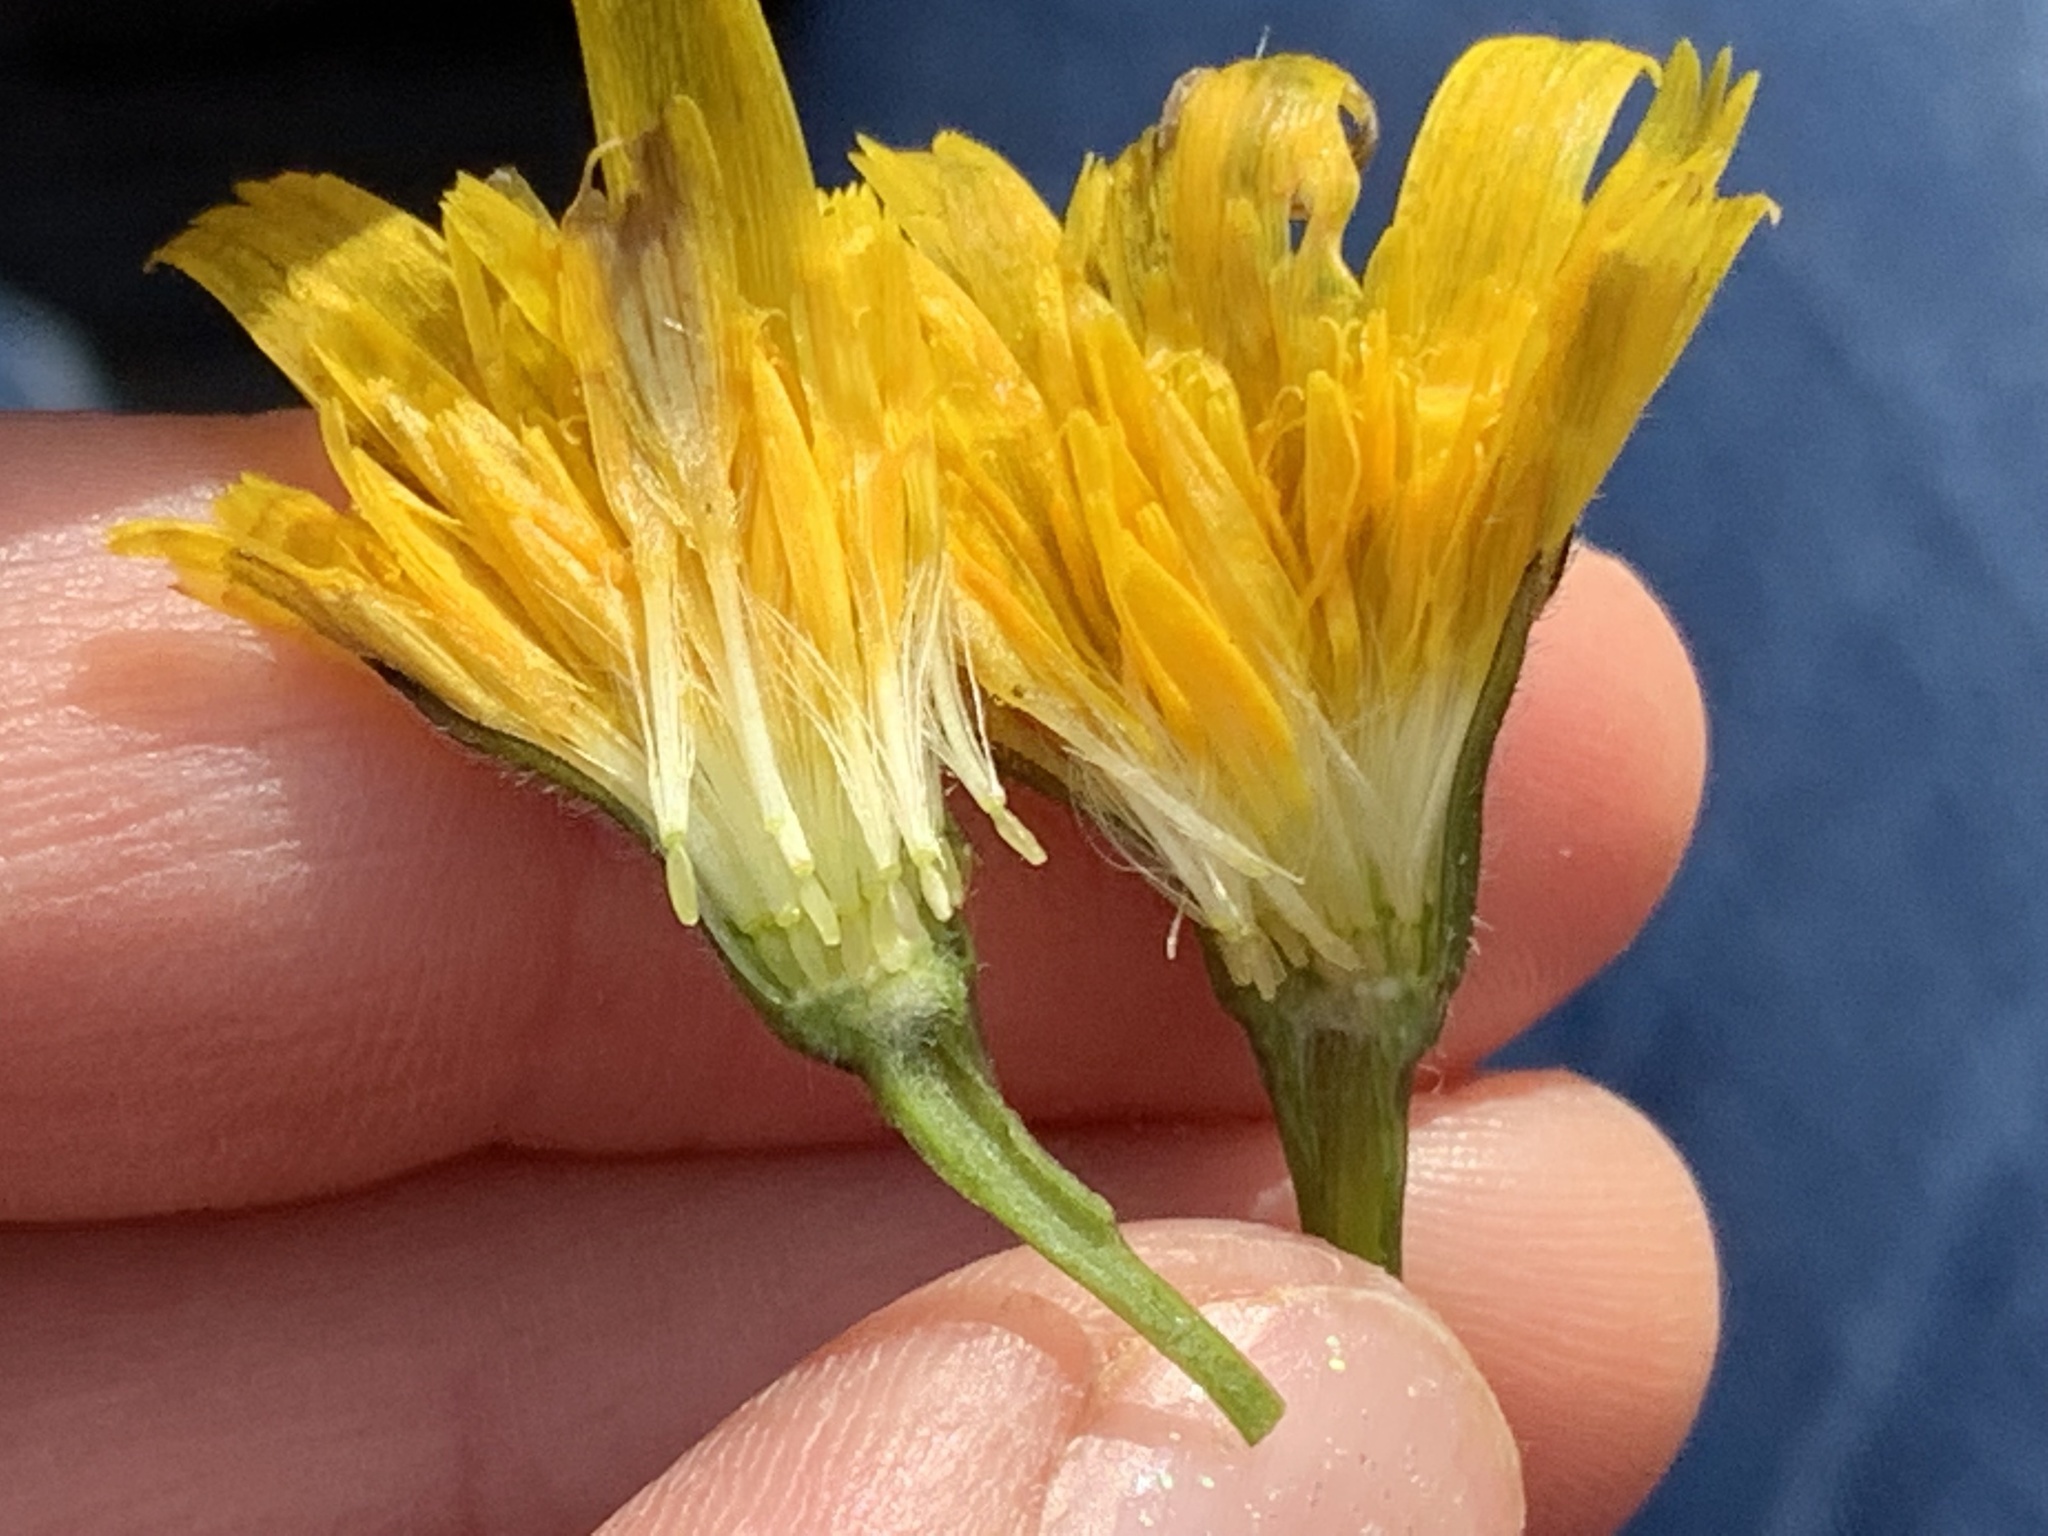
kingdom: Plantae
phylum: Tracheophyta
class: Magnoliopsida
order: Asterales
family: Asteraceae
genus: Hypochaeris
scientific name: Hypochaeris radicata
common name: Flatweed
